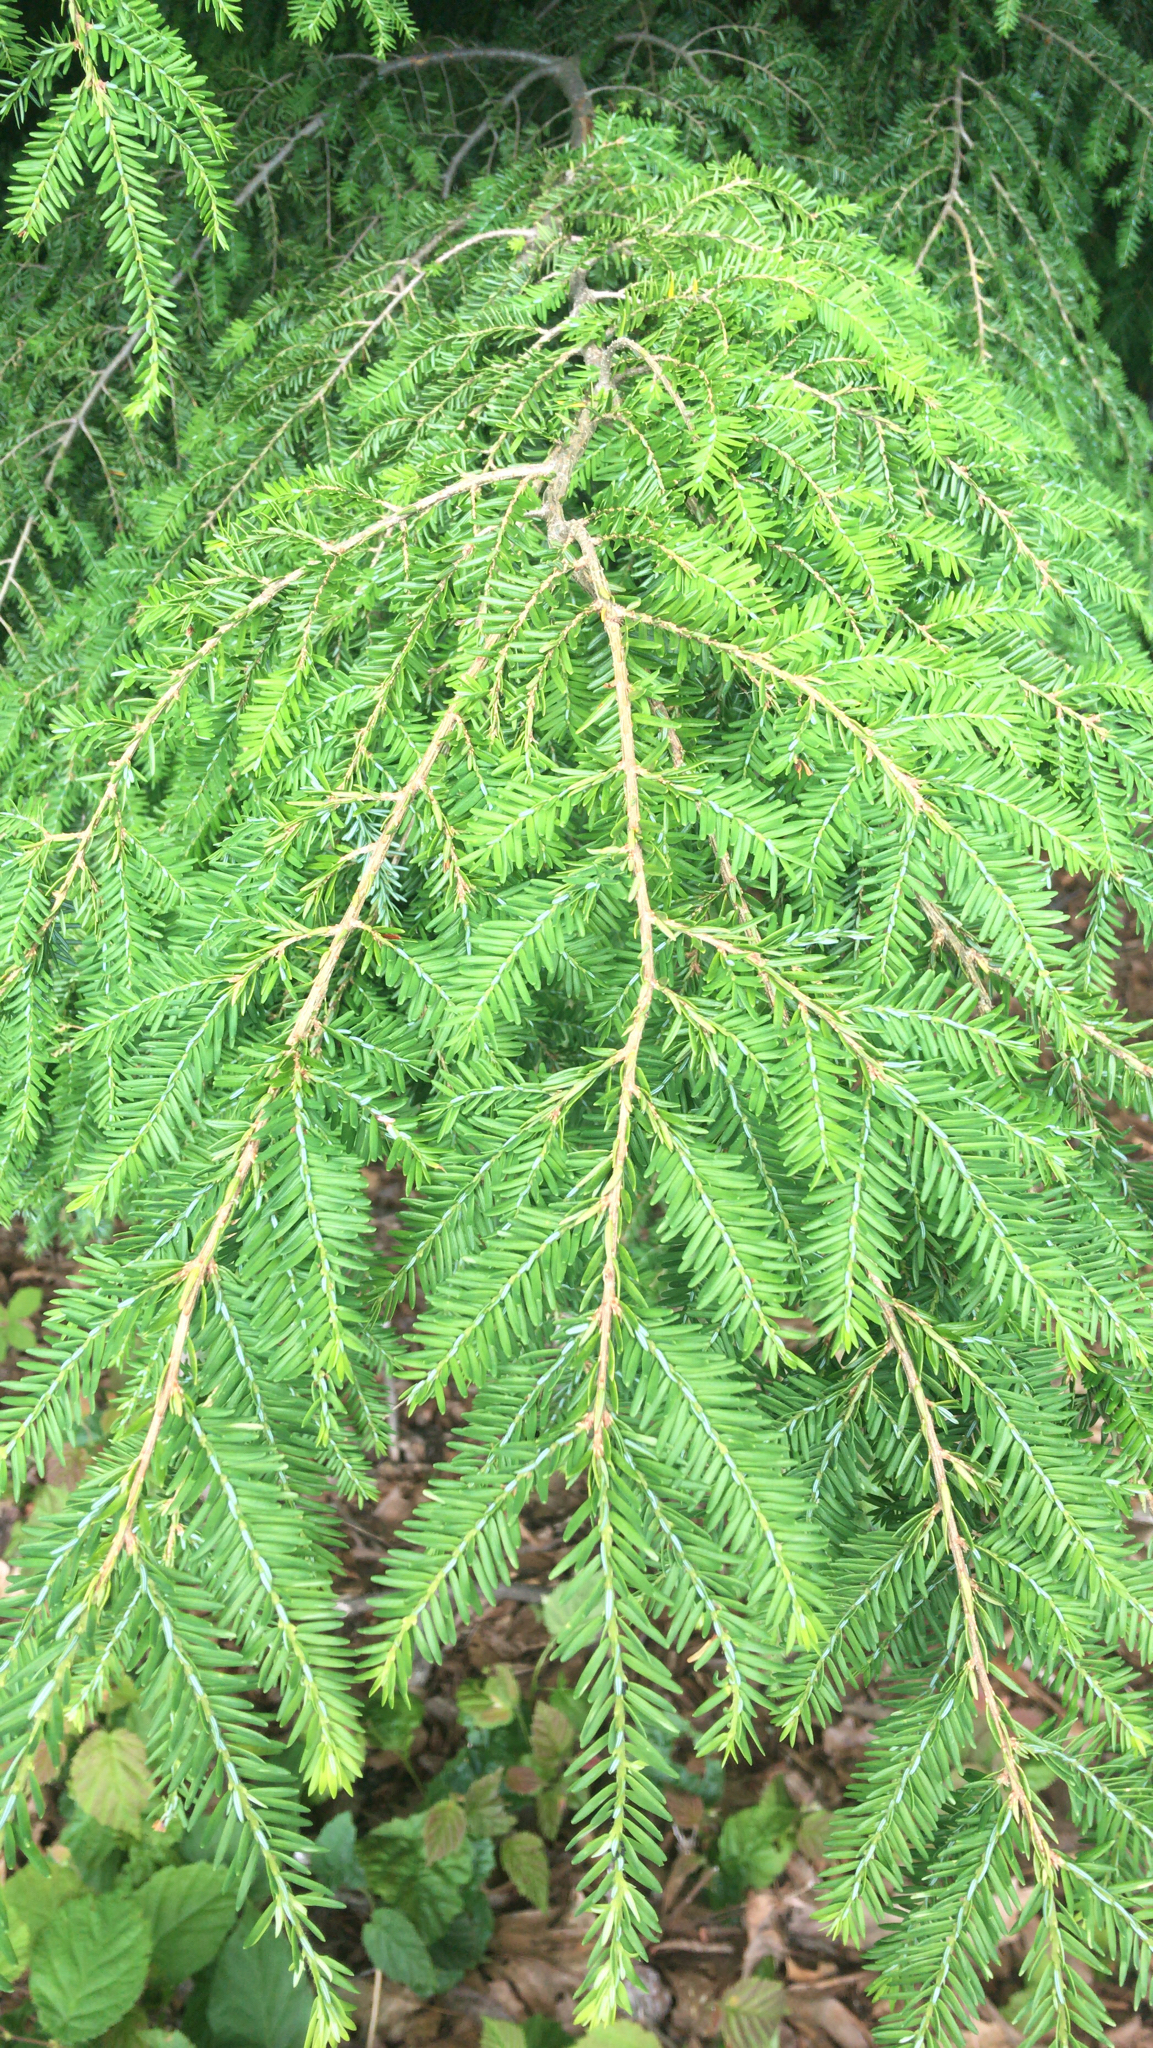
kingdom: Plantae
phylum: Tracheophyta
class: Pinopsida
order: Pinales
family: Pinaceae
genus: Tsuga
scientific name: Tsuga canadensis
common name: Eastern hemlock
